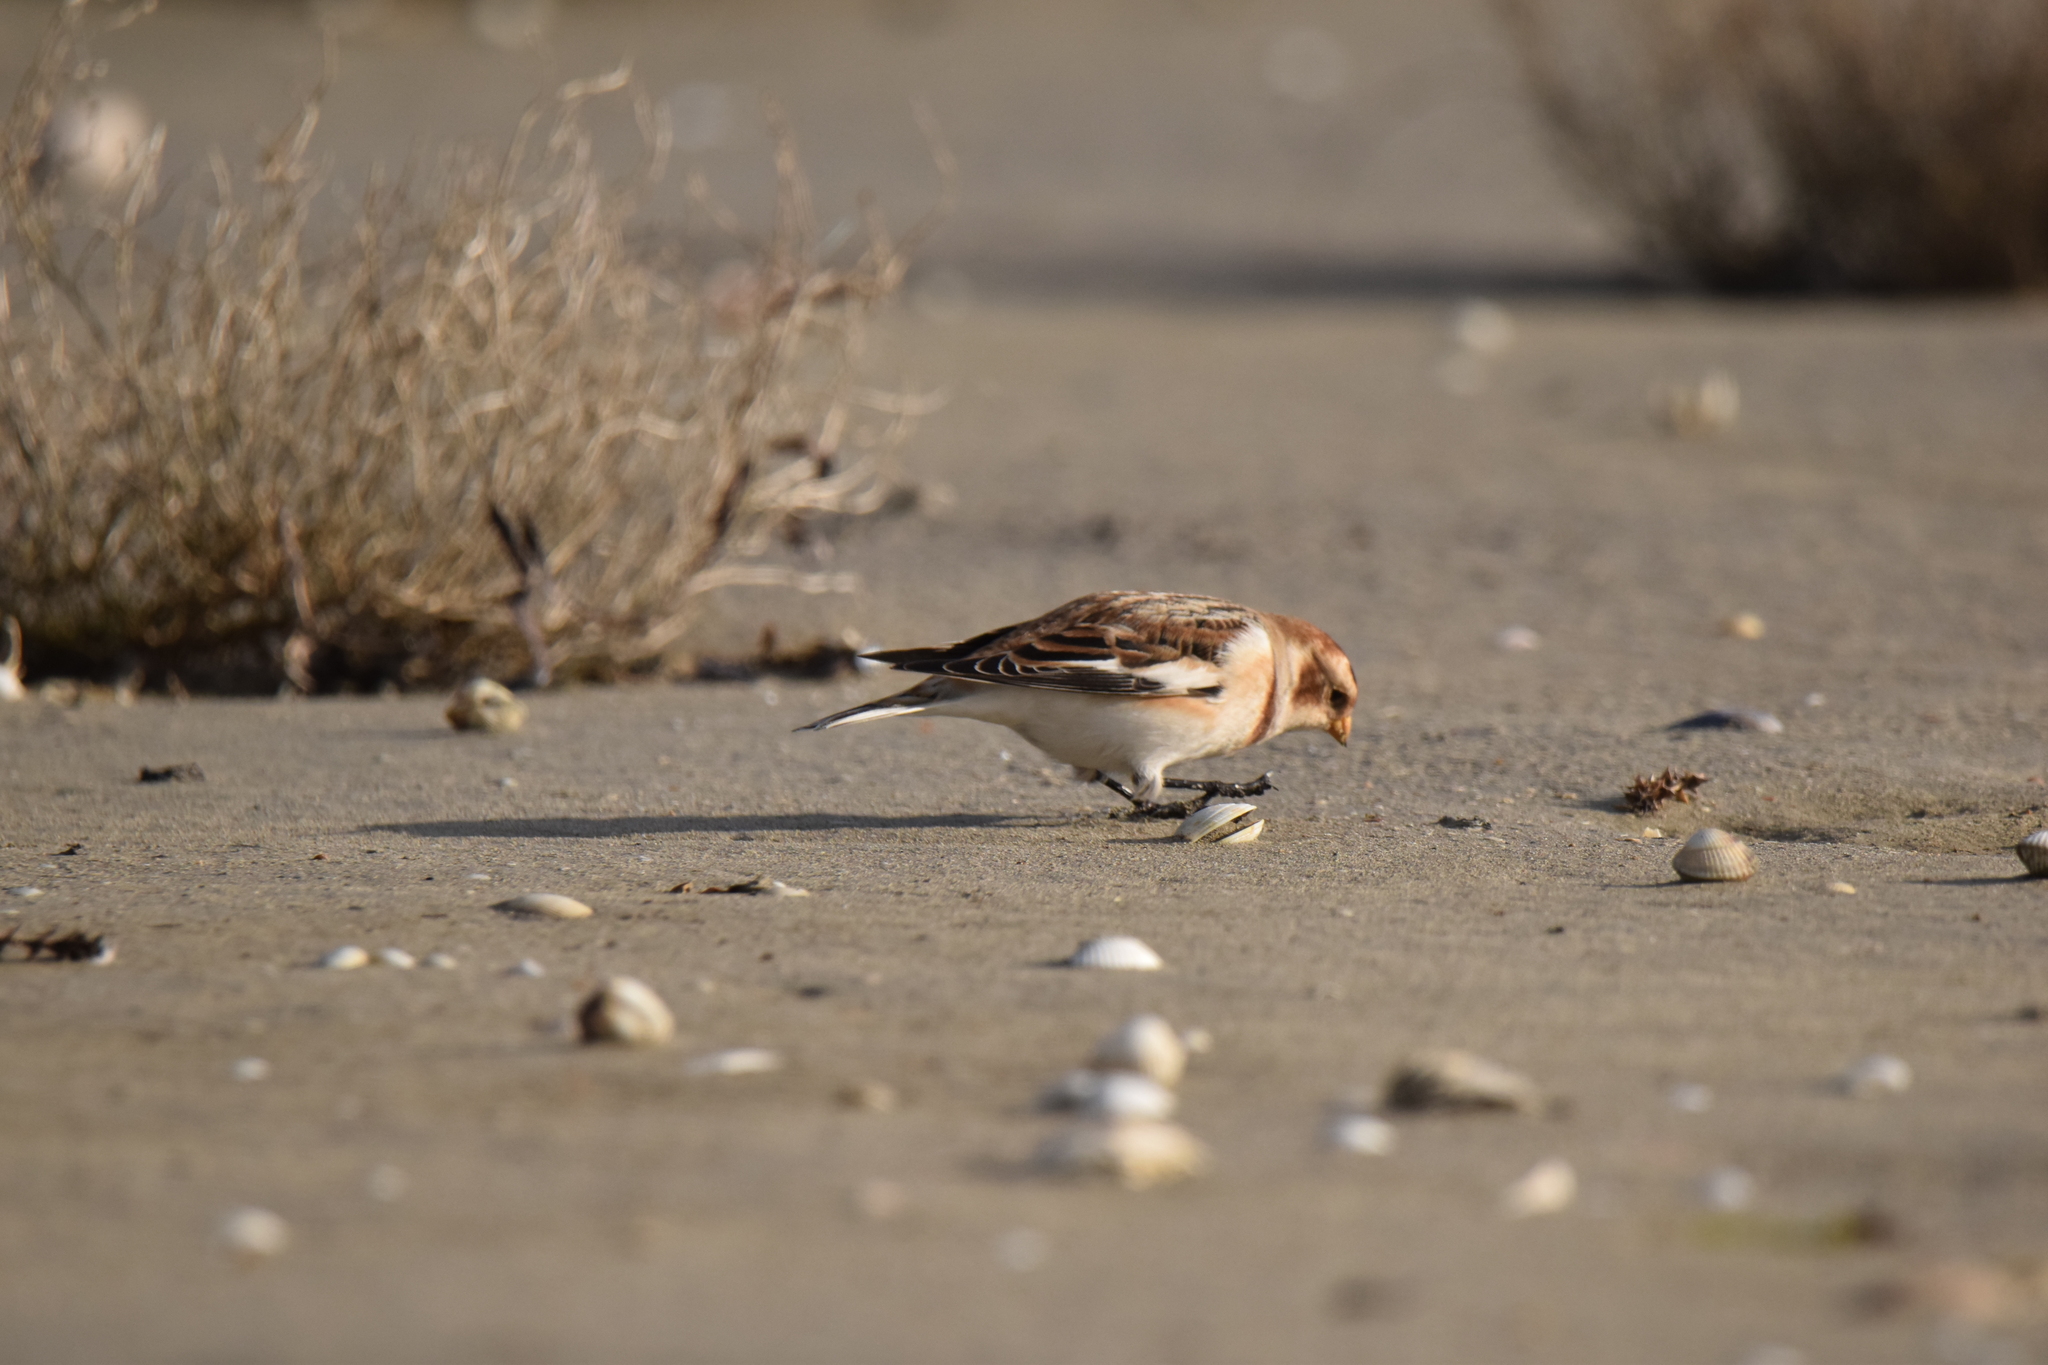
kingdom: Animalia
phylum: Chordata
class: Aves
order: Passeriformes
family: Calcariidae
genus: Plectrophenax
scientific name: Plectrophenax nivalis
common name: Snow bunting
